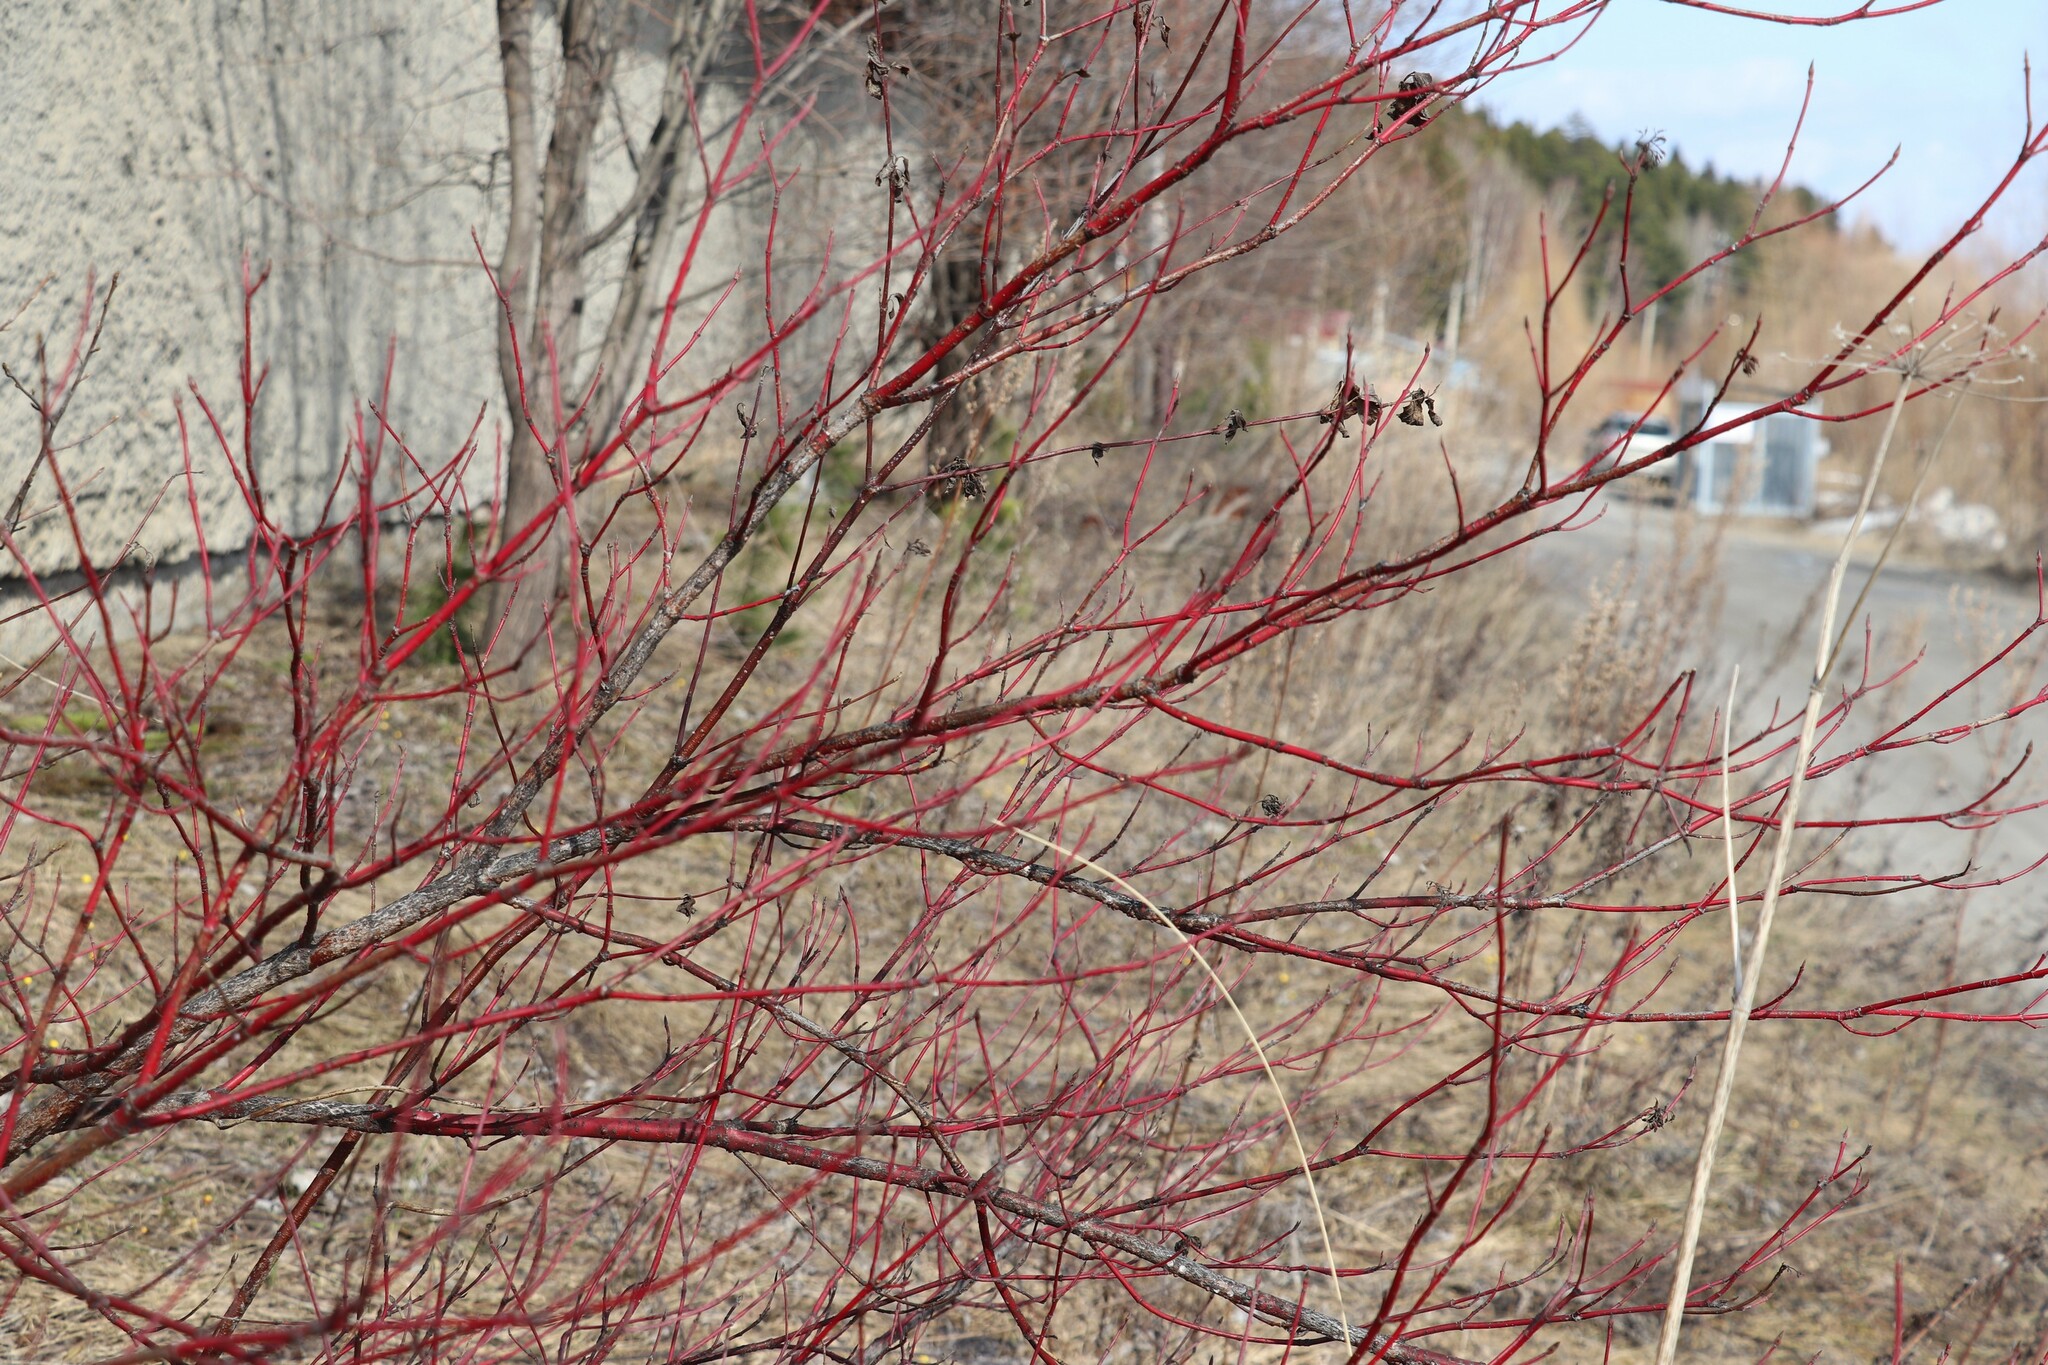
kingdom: Plantae
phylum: Tracheophyta
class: Magnoliopsida
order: Cornales
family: Cornaceae
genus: Cornus
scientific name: Cornus alba
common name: White dogwood
